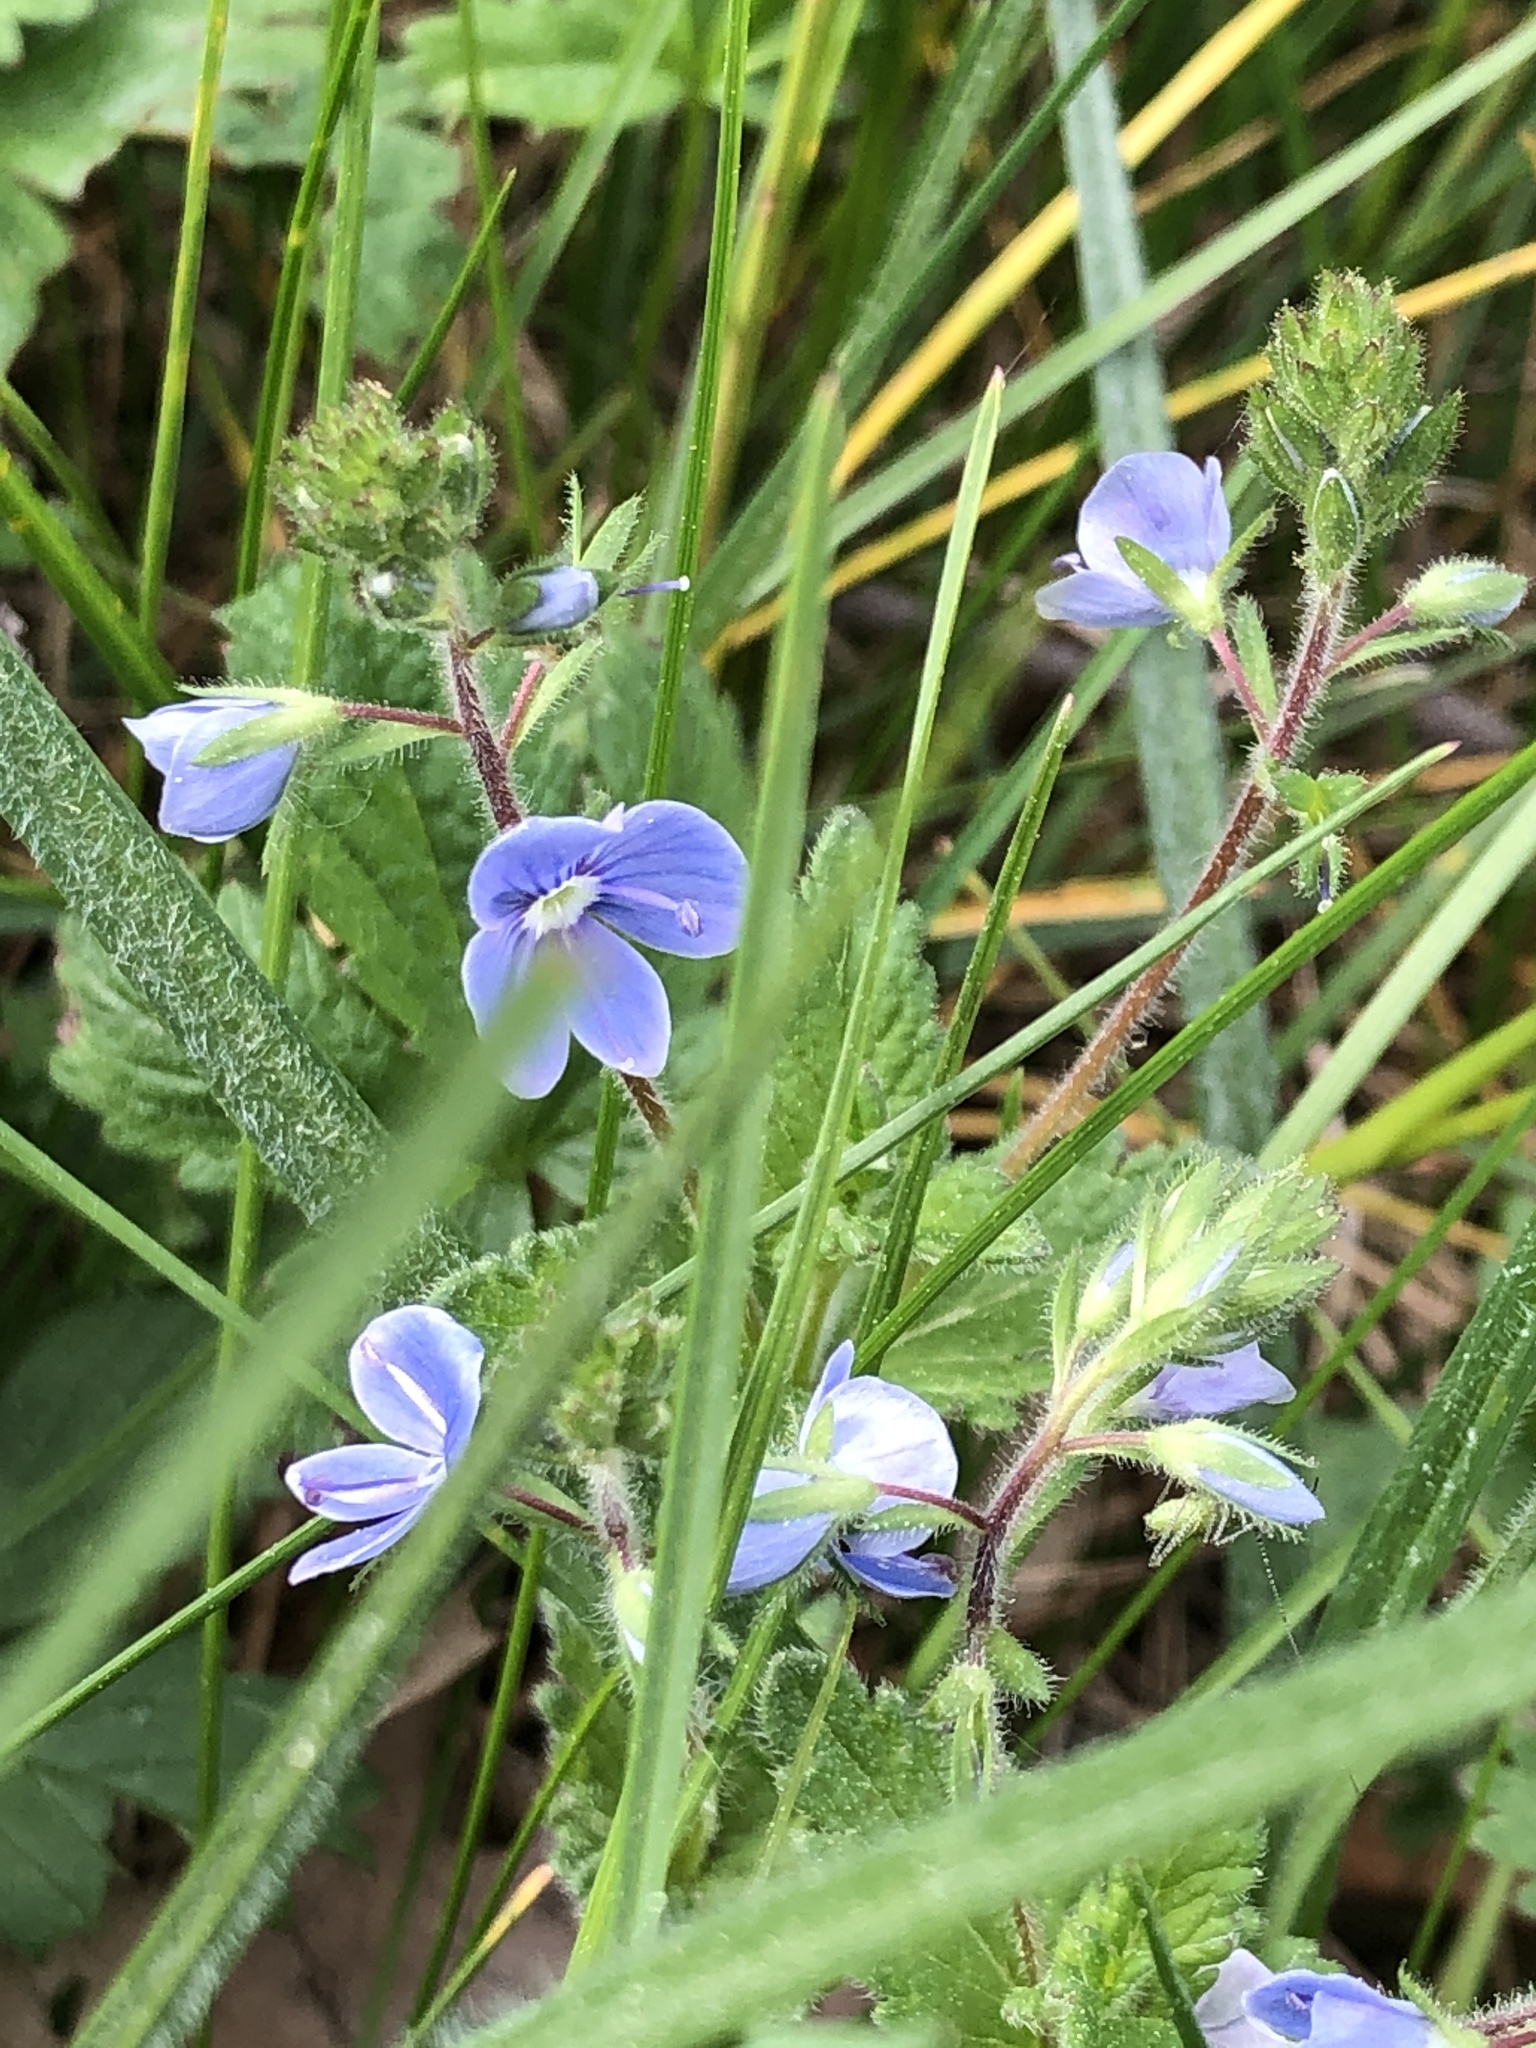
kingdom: Plantae
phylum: Tracheophyta
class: Magnoliopsida
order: Lamiales
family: Plantaginaceae
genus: Veronica
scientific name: Veronica chamaedrys
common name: Germander speedwell
